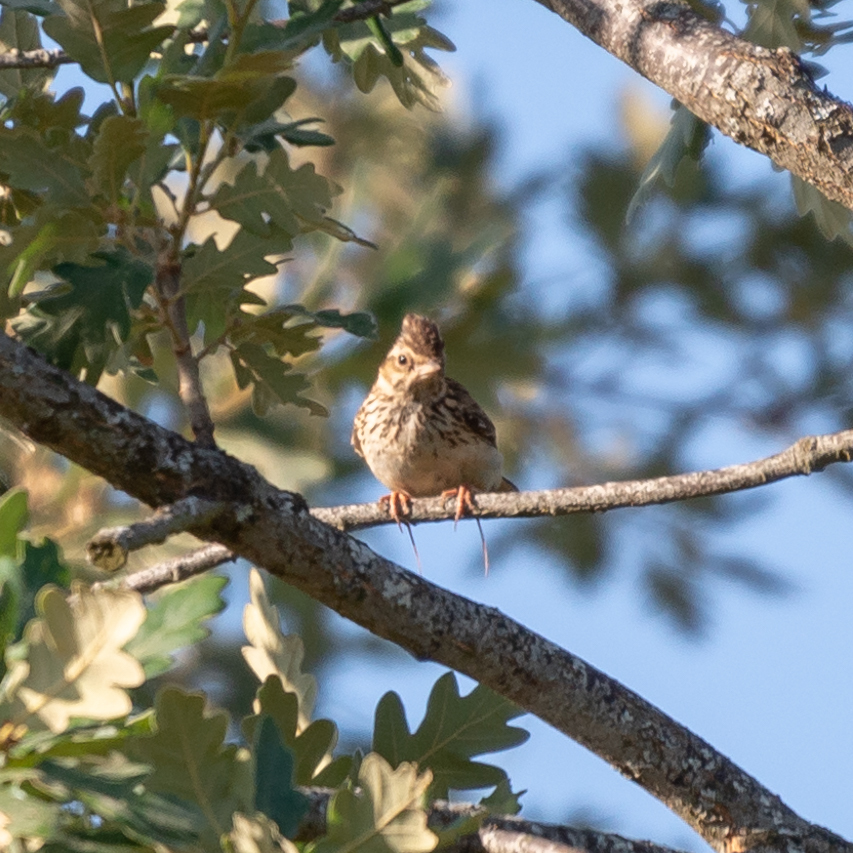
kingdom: Animalia
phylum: Chordata
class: Aves
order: Passeriformes
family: Alaudidae
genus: Lullula
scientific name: Lullula arborea
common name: Woodlark
